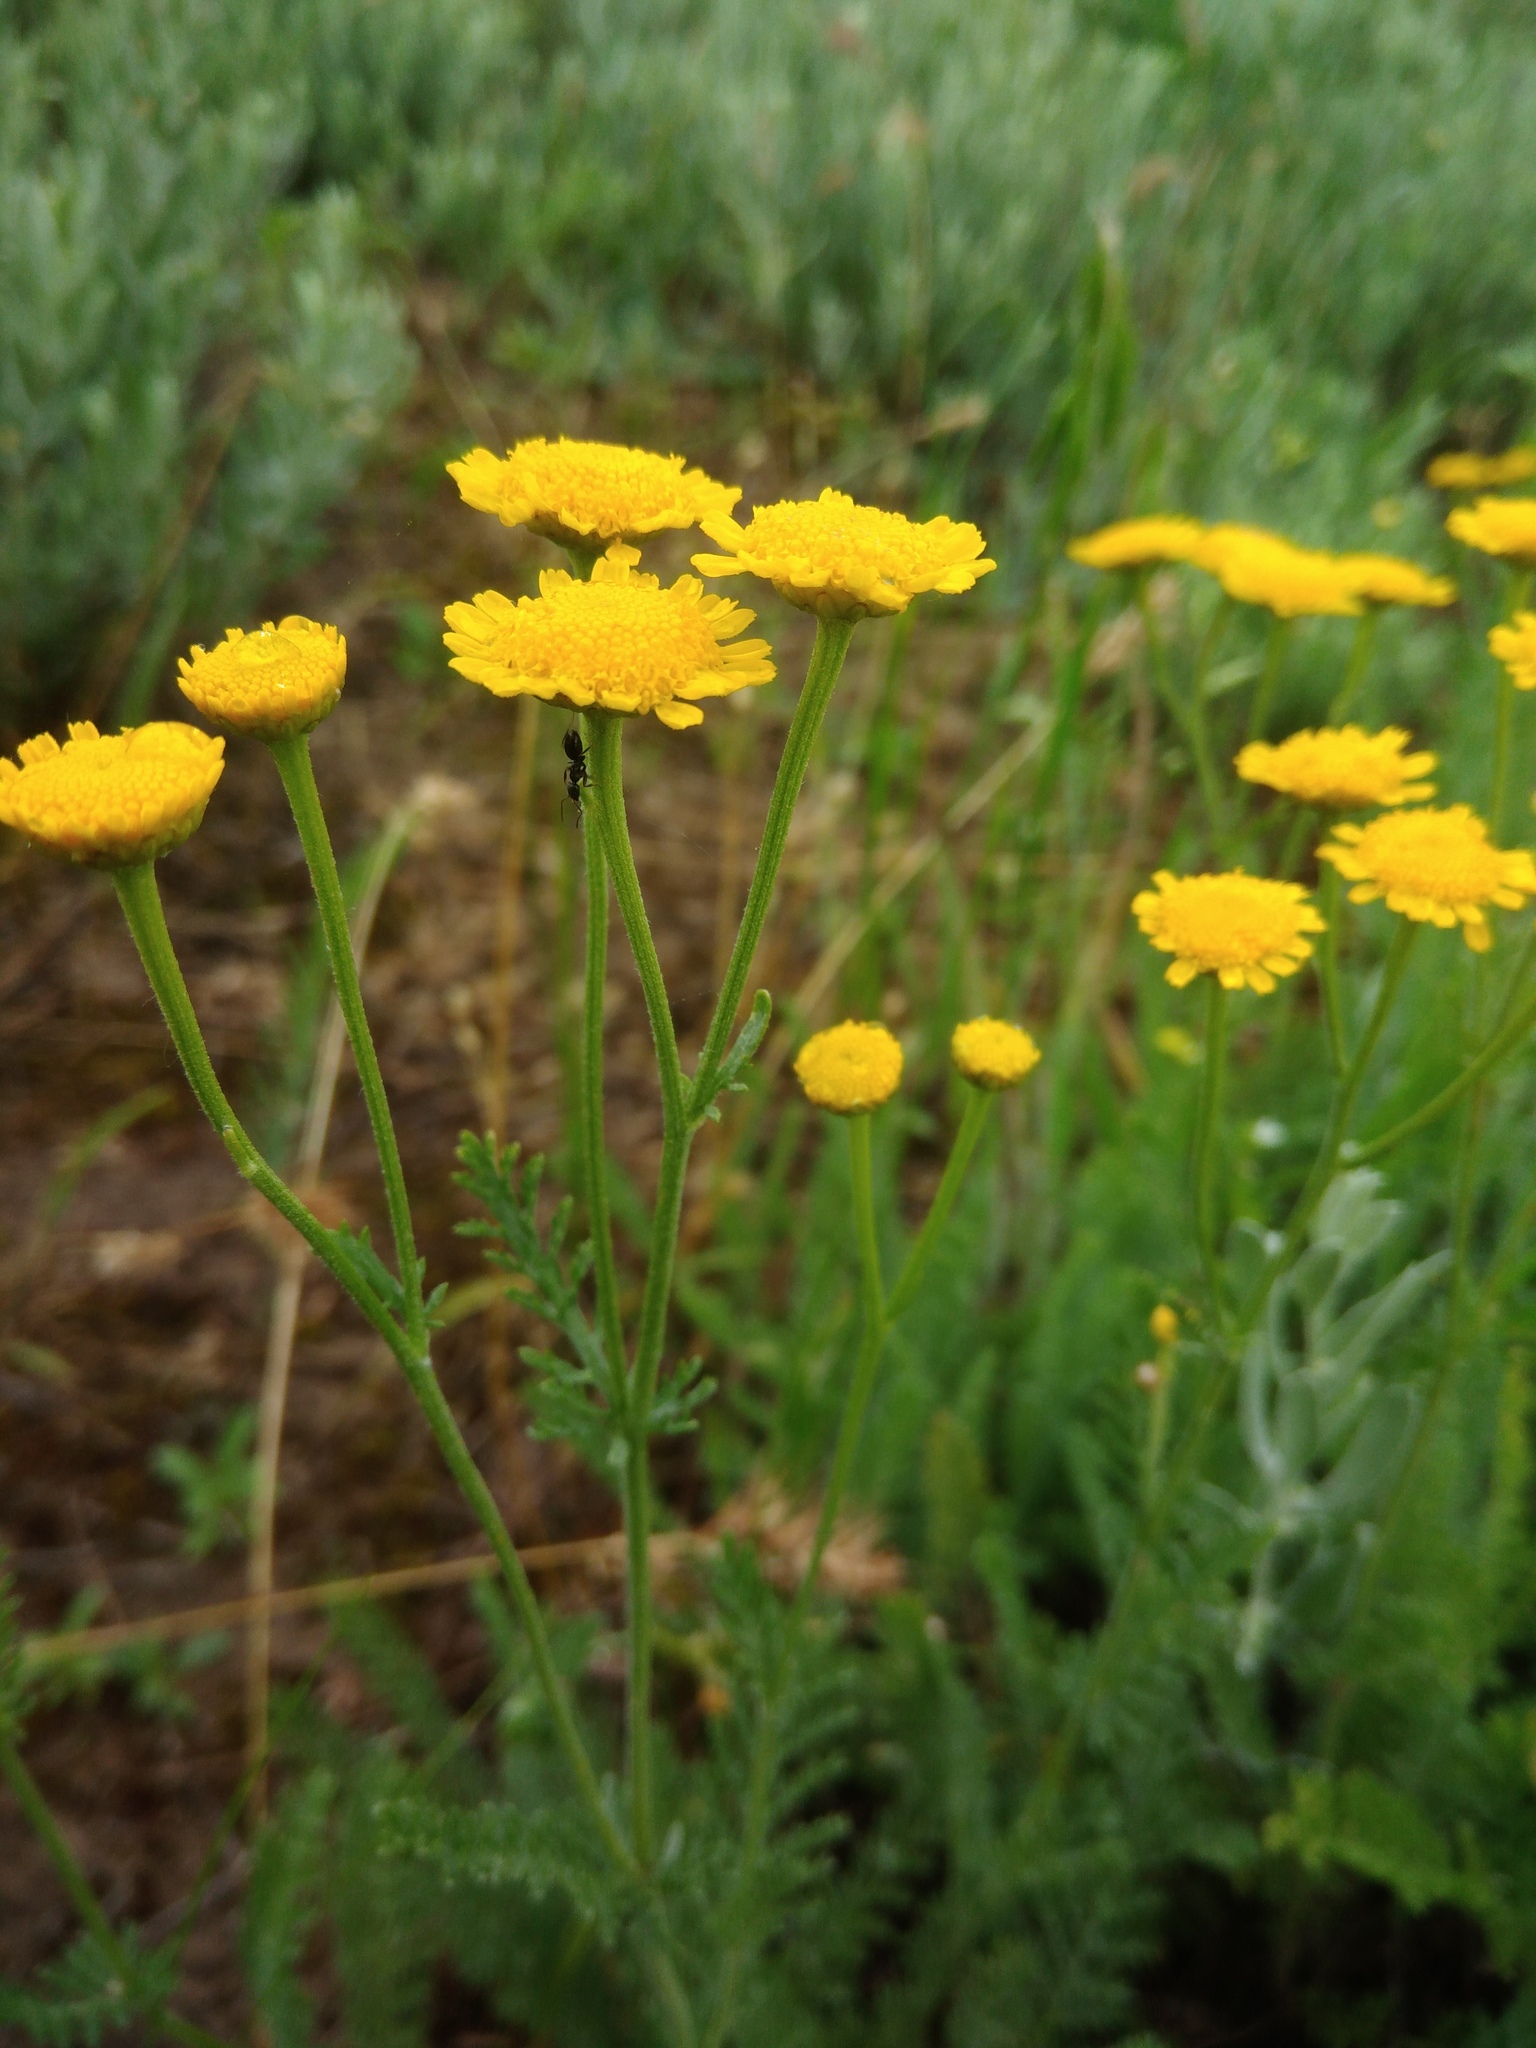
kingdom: Plantae
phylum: Tracheophyta
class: Magnoliopsida
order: Asterales
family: Asteraceae
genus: Tanacetum
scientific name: Tanacetum millefolium
